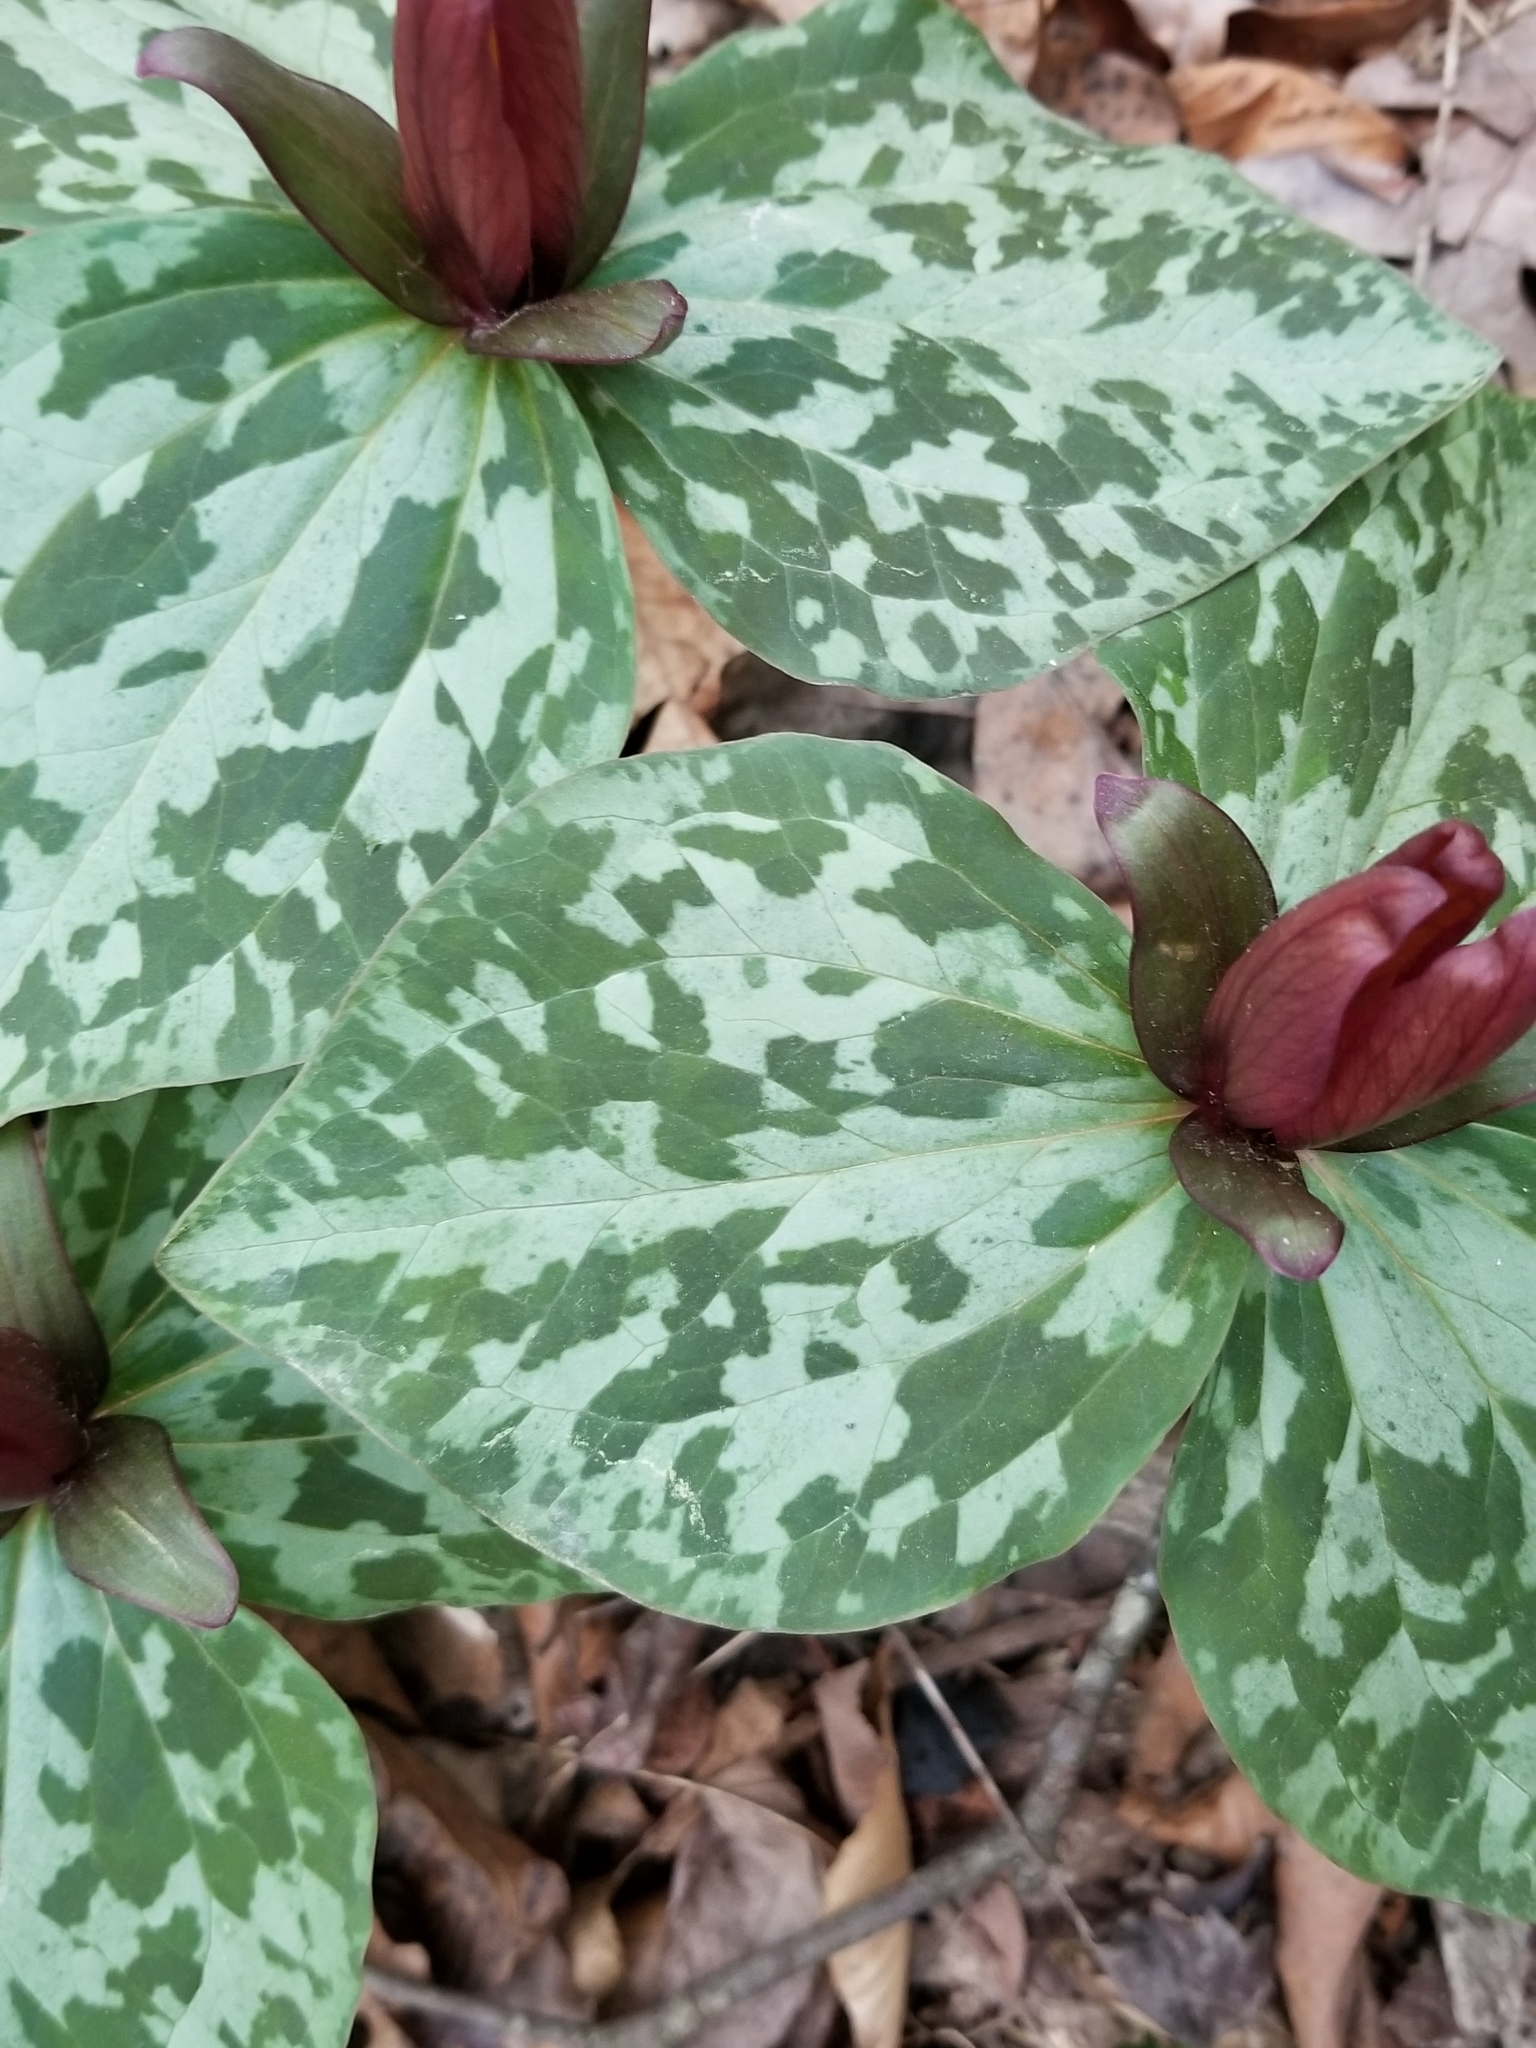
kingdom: Plantae
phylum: Tracheophyta
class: Liliopsida
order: Liliales
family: Melanthiaceae
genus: Trillium
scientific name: Trillium cuneatum
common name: Cuneate trillium
